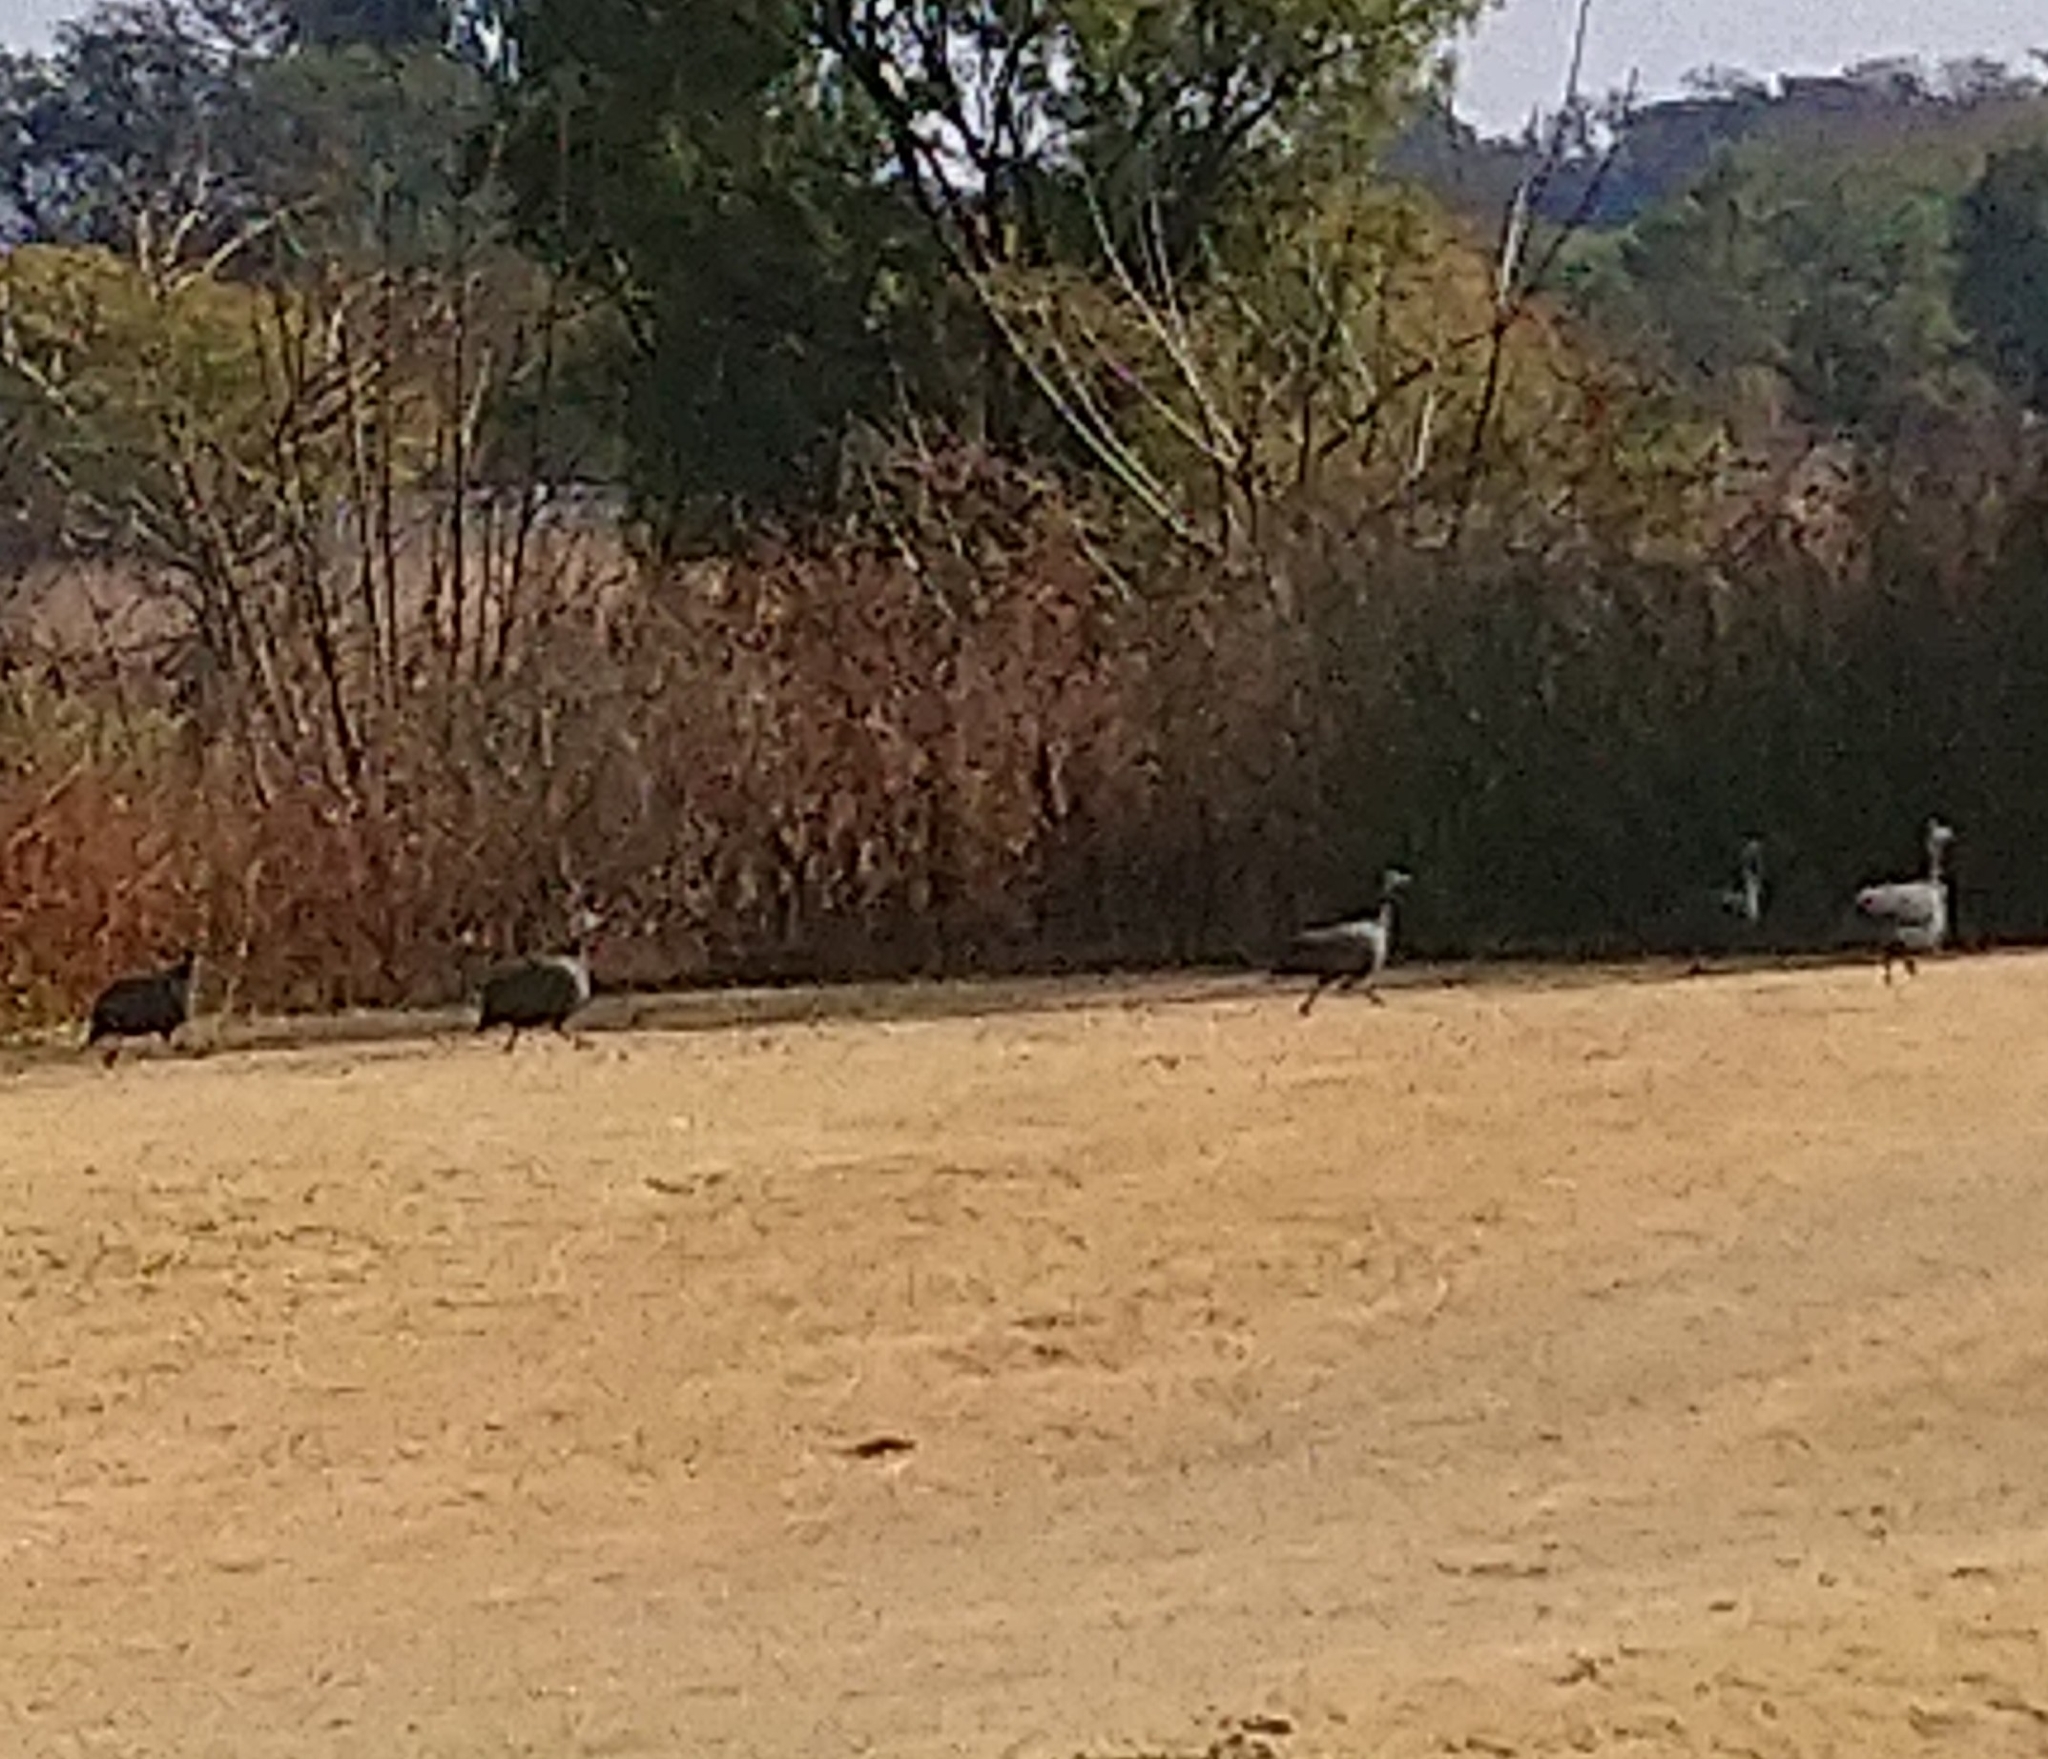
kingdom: Animalia
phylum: Chordata
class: Aves
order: Galliformes
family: Numididae
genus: Numida
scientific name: Numida meleagris
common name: Helmeted guineafowl
